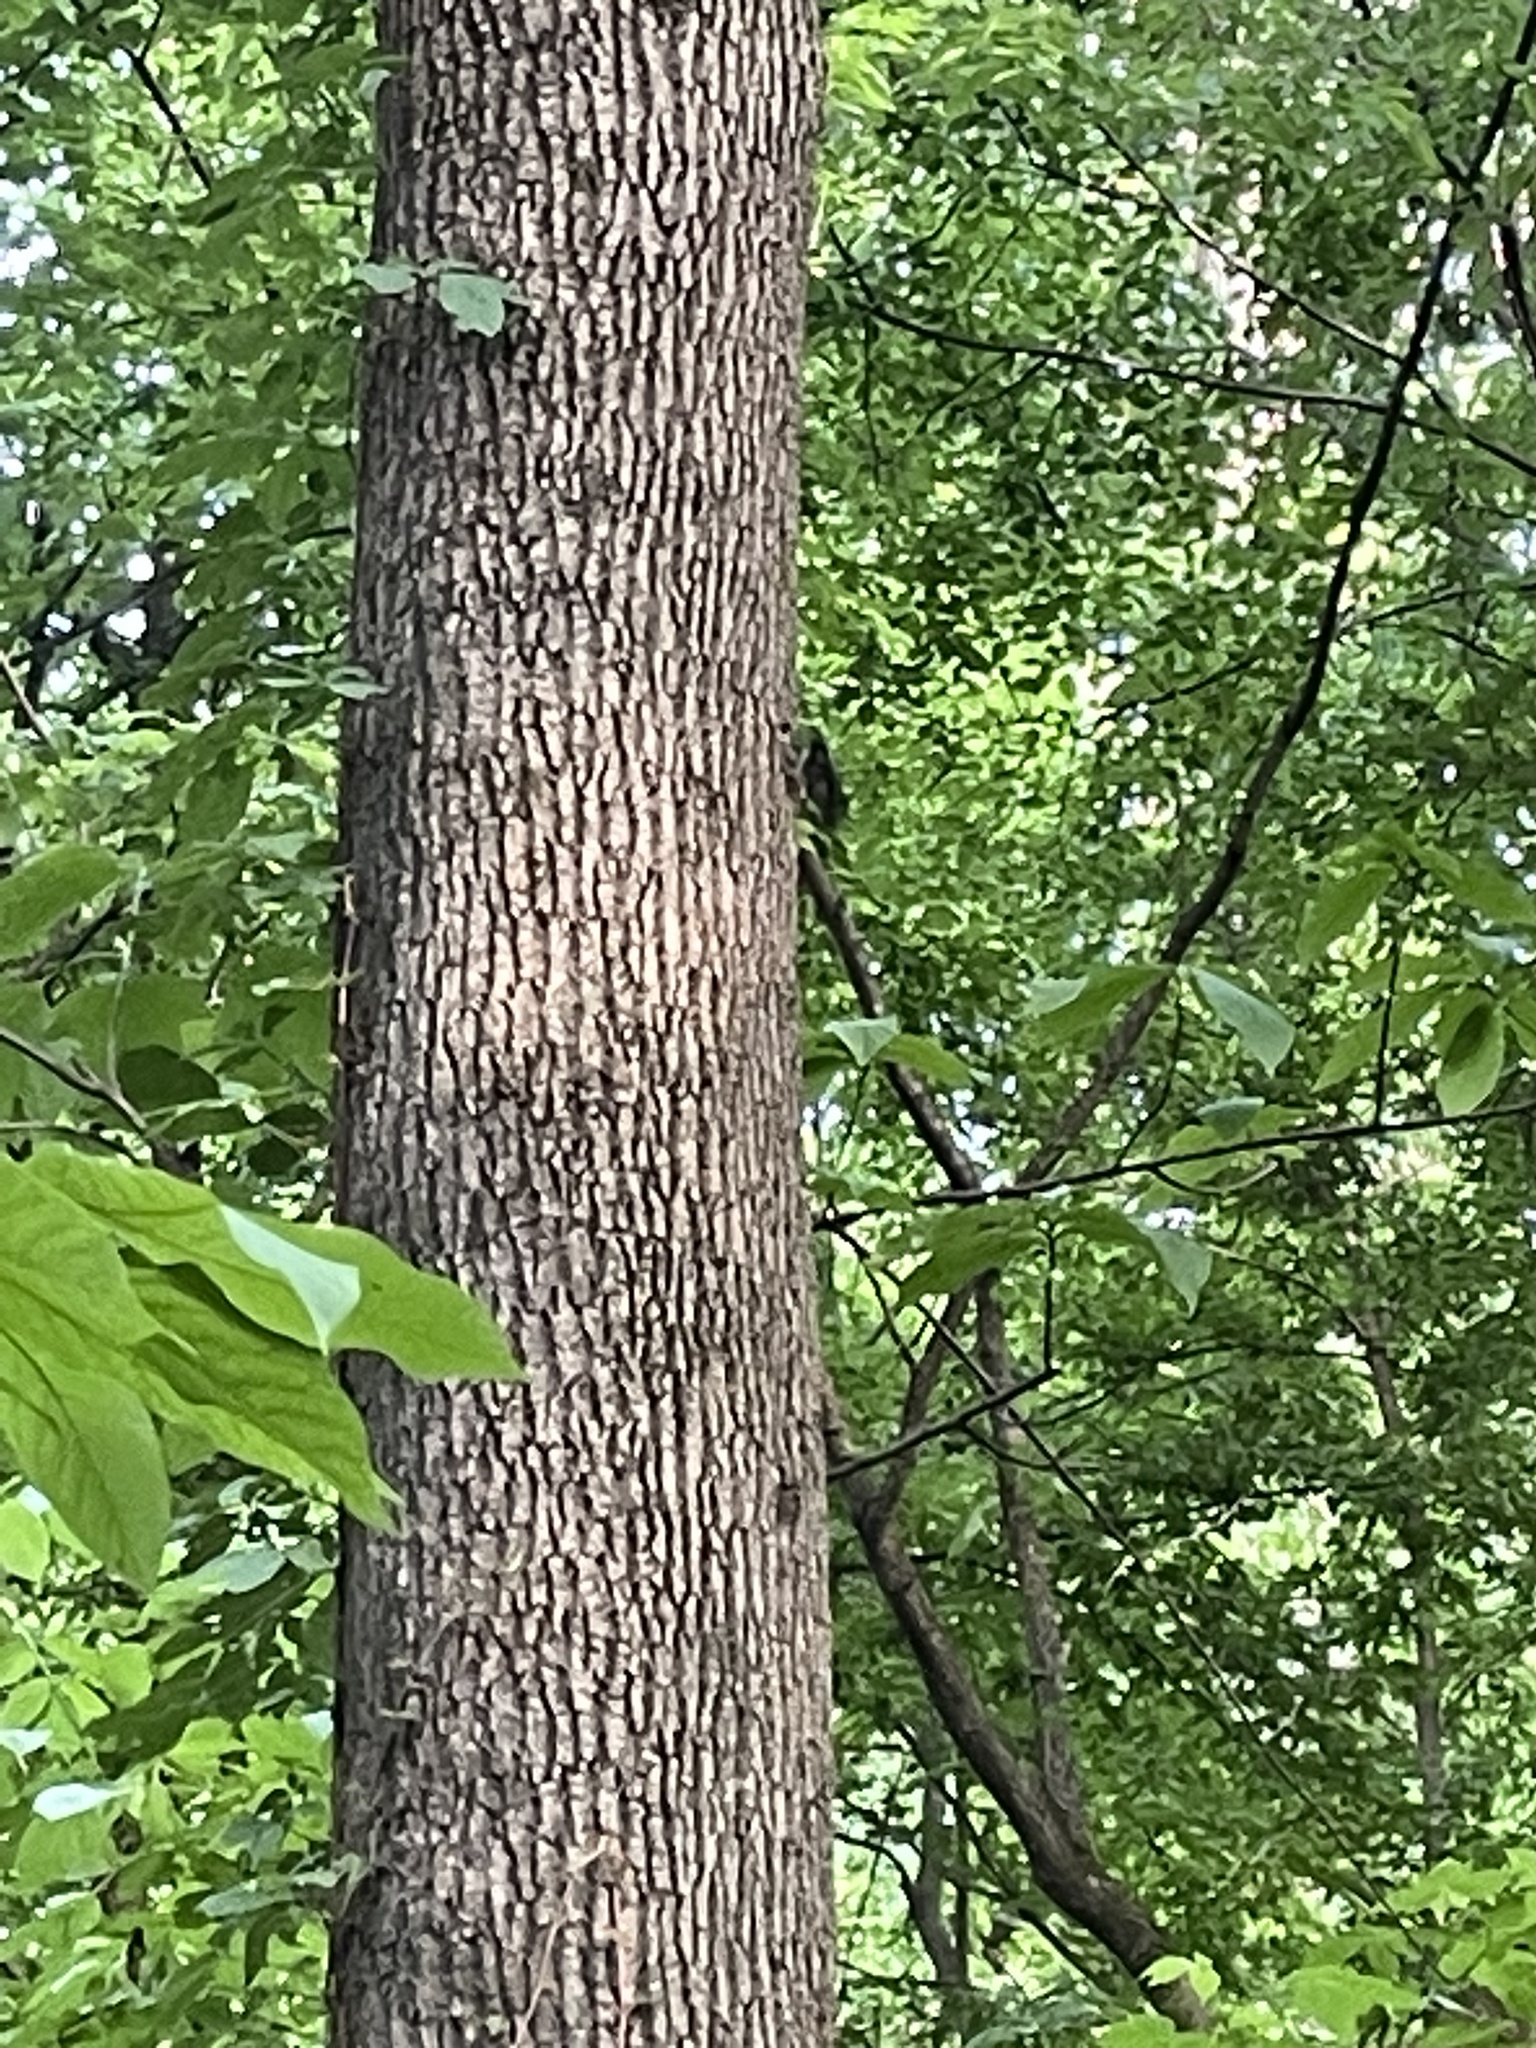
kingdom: Animalia
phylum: Chordata
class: Aves
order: Passeriformes
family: Sittidae
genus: Sitta
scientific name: Sitta carolinensis
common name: White-breasted nuthatch
